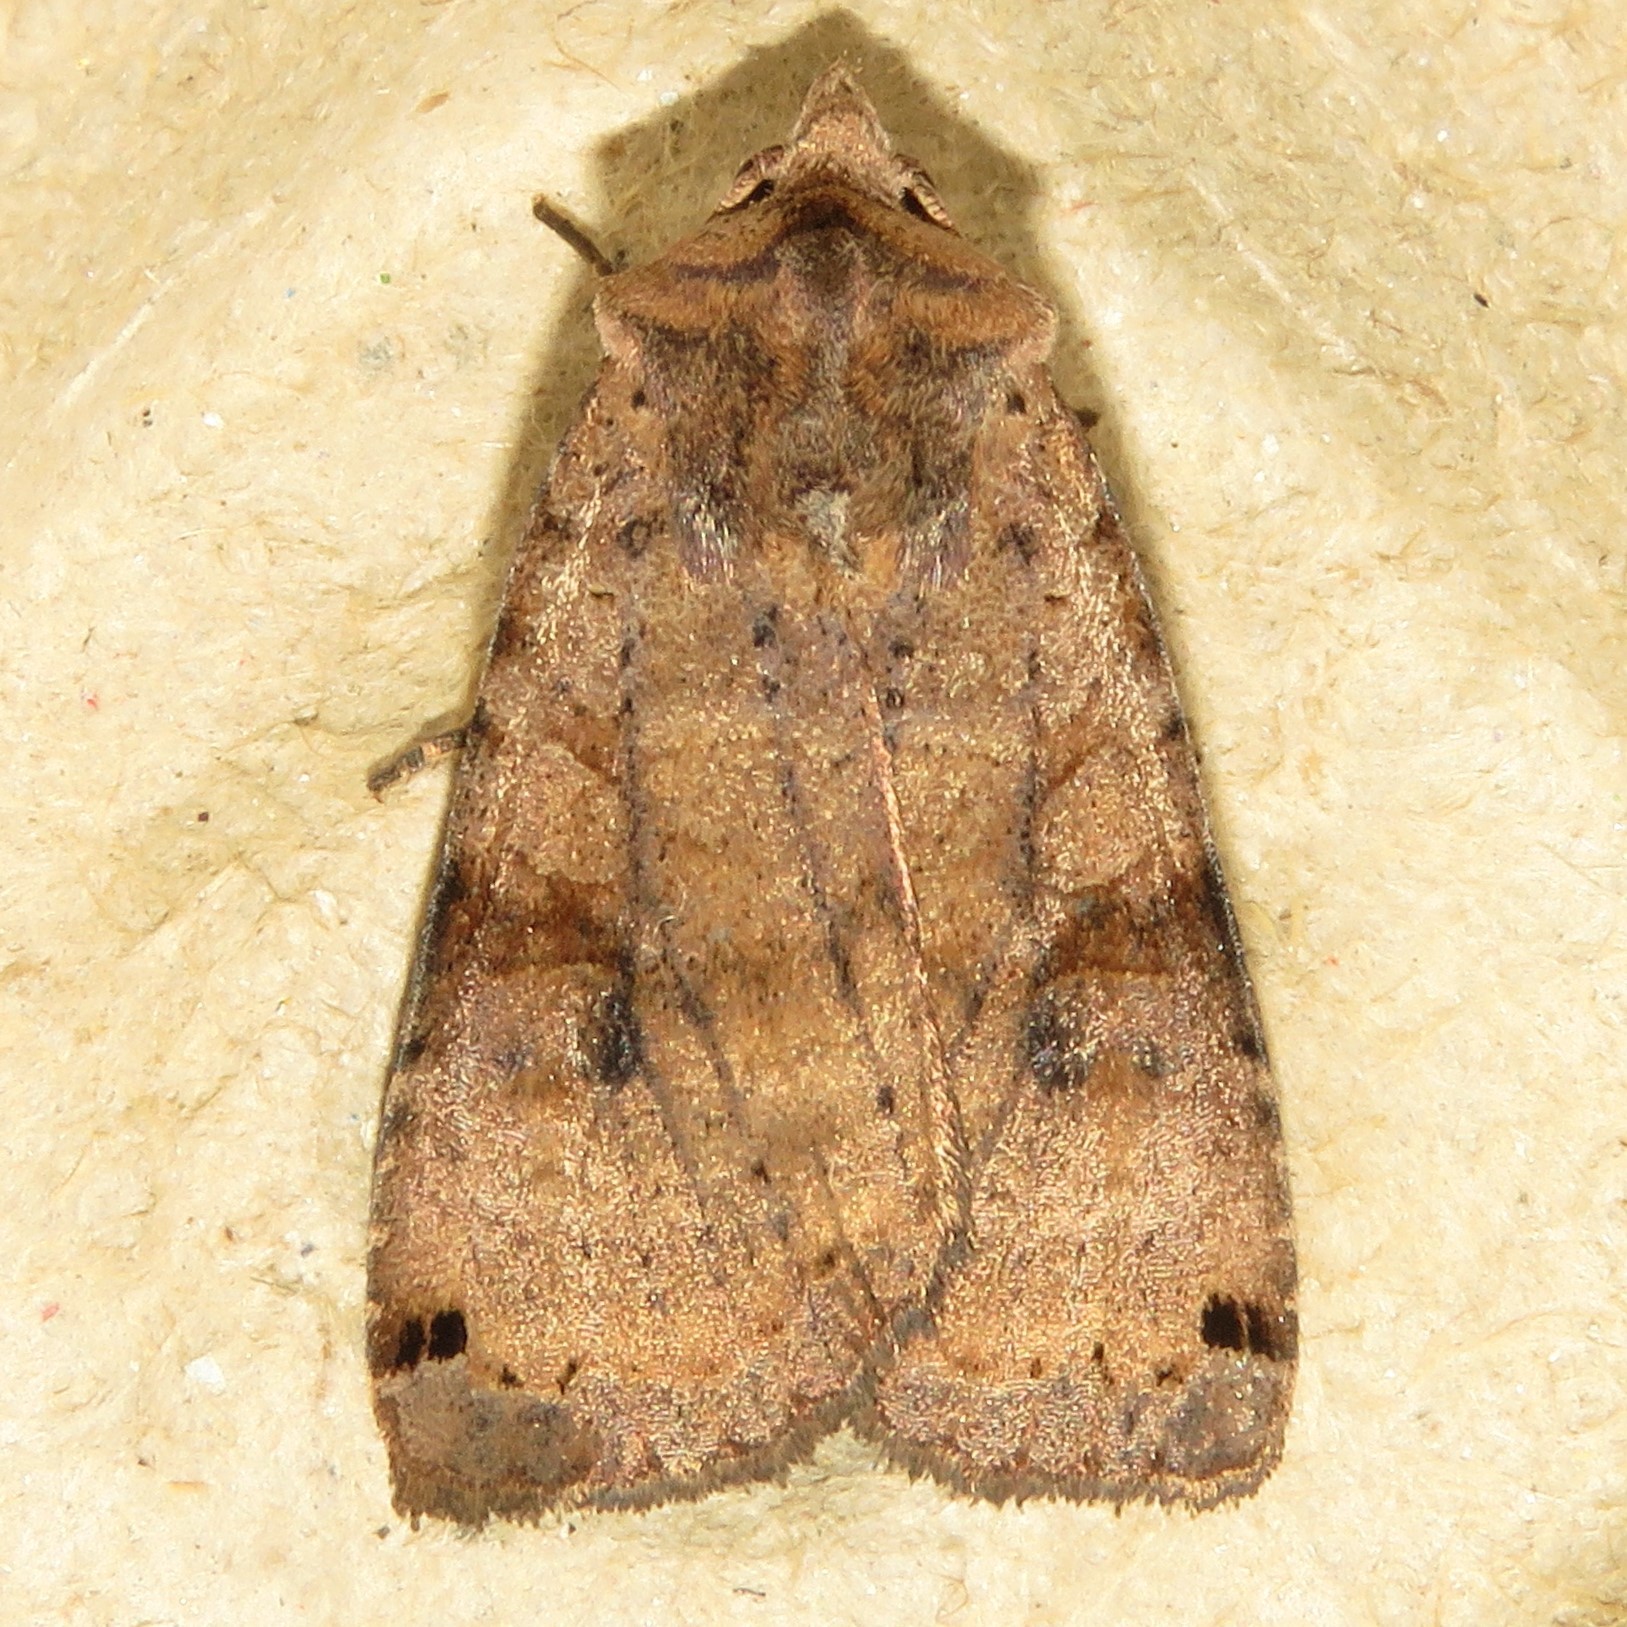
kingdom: Animalia
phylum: Arthropoda
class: Insecta
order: Lepidoptera
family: Noctuidae
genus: Xestia
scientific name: Xestia smithii
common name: Smith's dart
